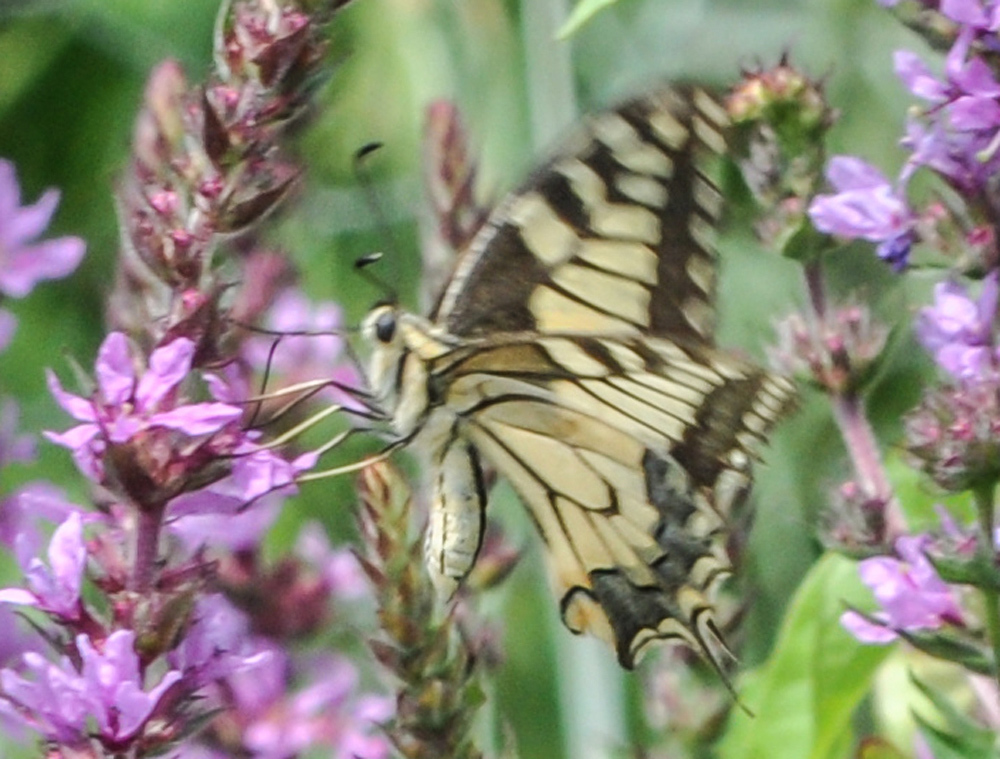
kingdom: Animalia
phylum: Arthropoda
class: Insecta
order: Lepidoptera
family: Papilionidae
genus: Papilio
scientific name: Papilio machaon
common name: Swallowtail
